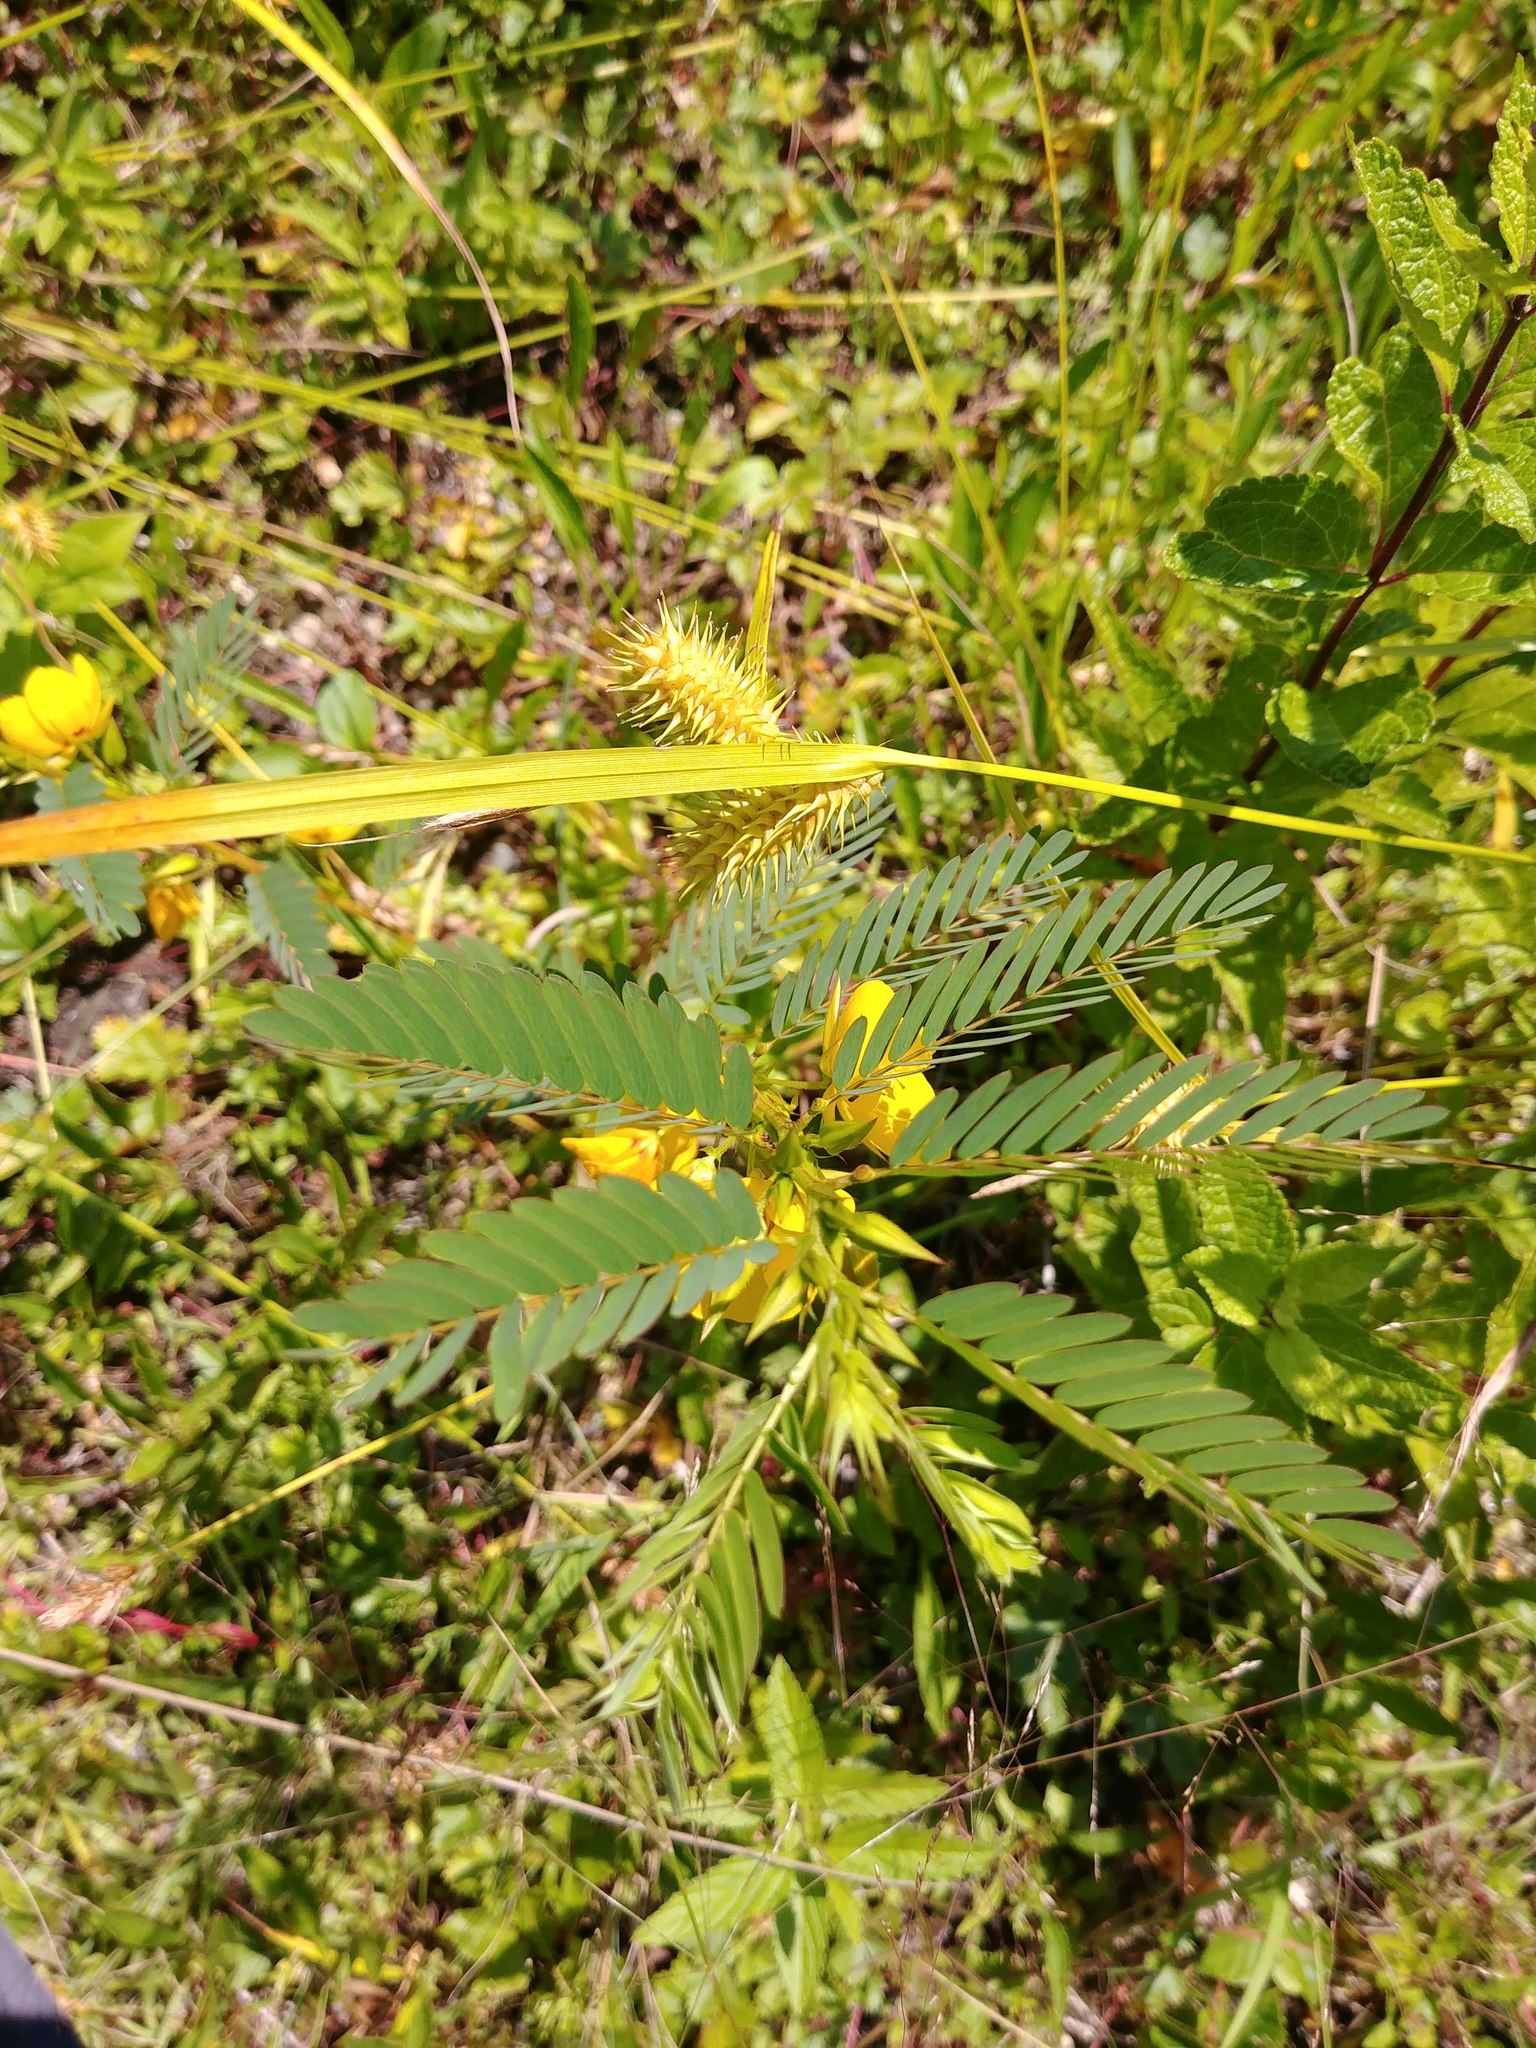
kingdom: Plantae
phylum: Tracheophyta
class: Magnoliopsida
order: Fabales
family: Fabaceae
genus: Chamaecrista
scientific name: Chamaecrista fasciculata
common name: Golden cassia
